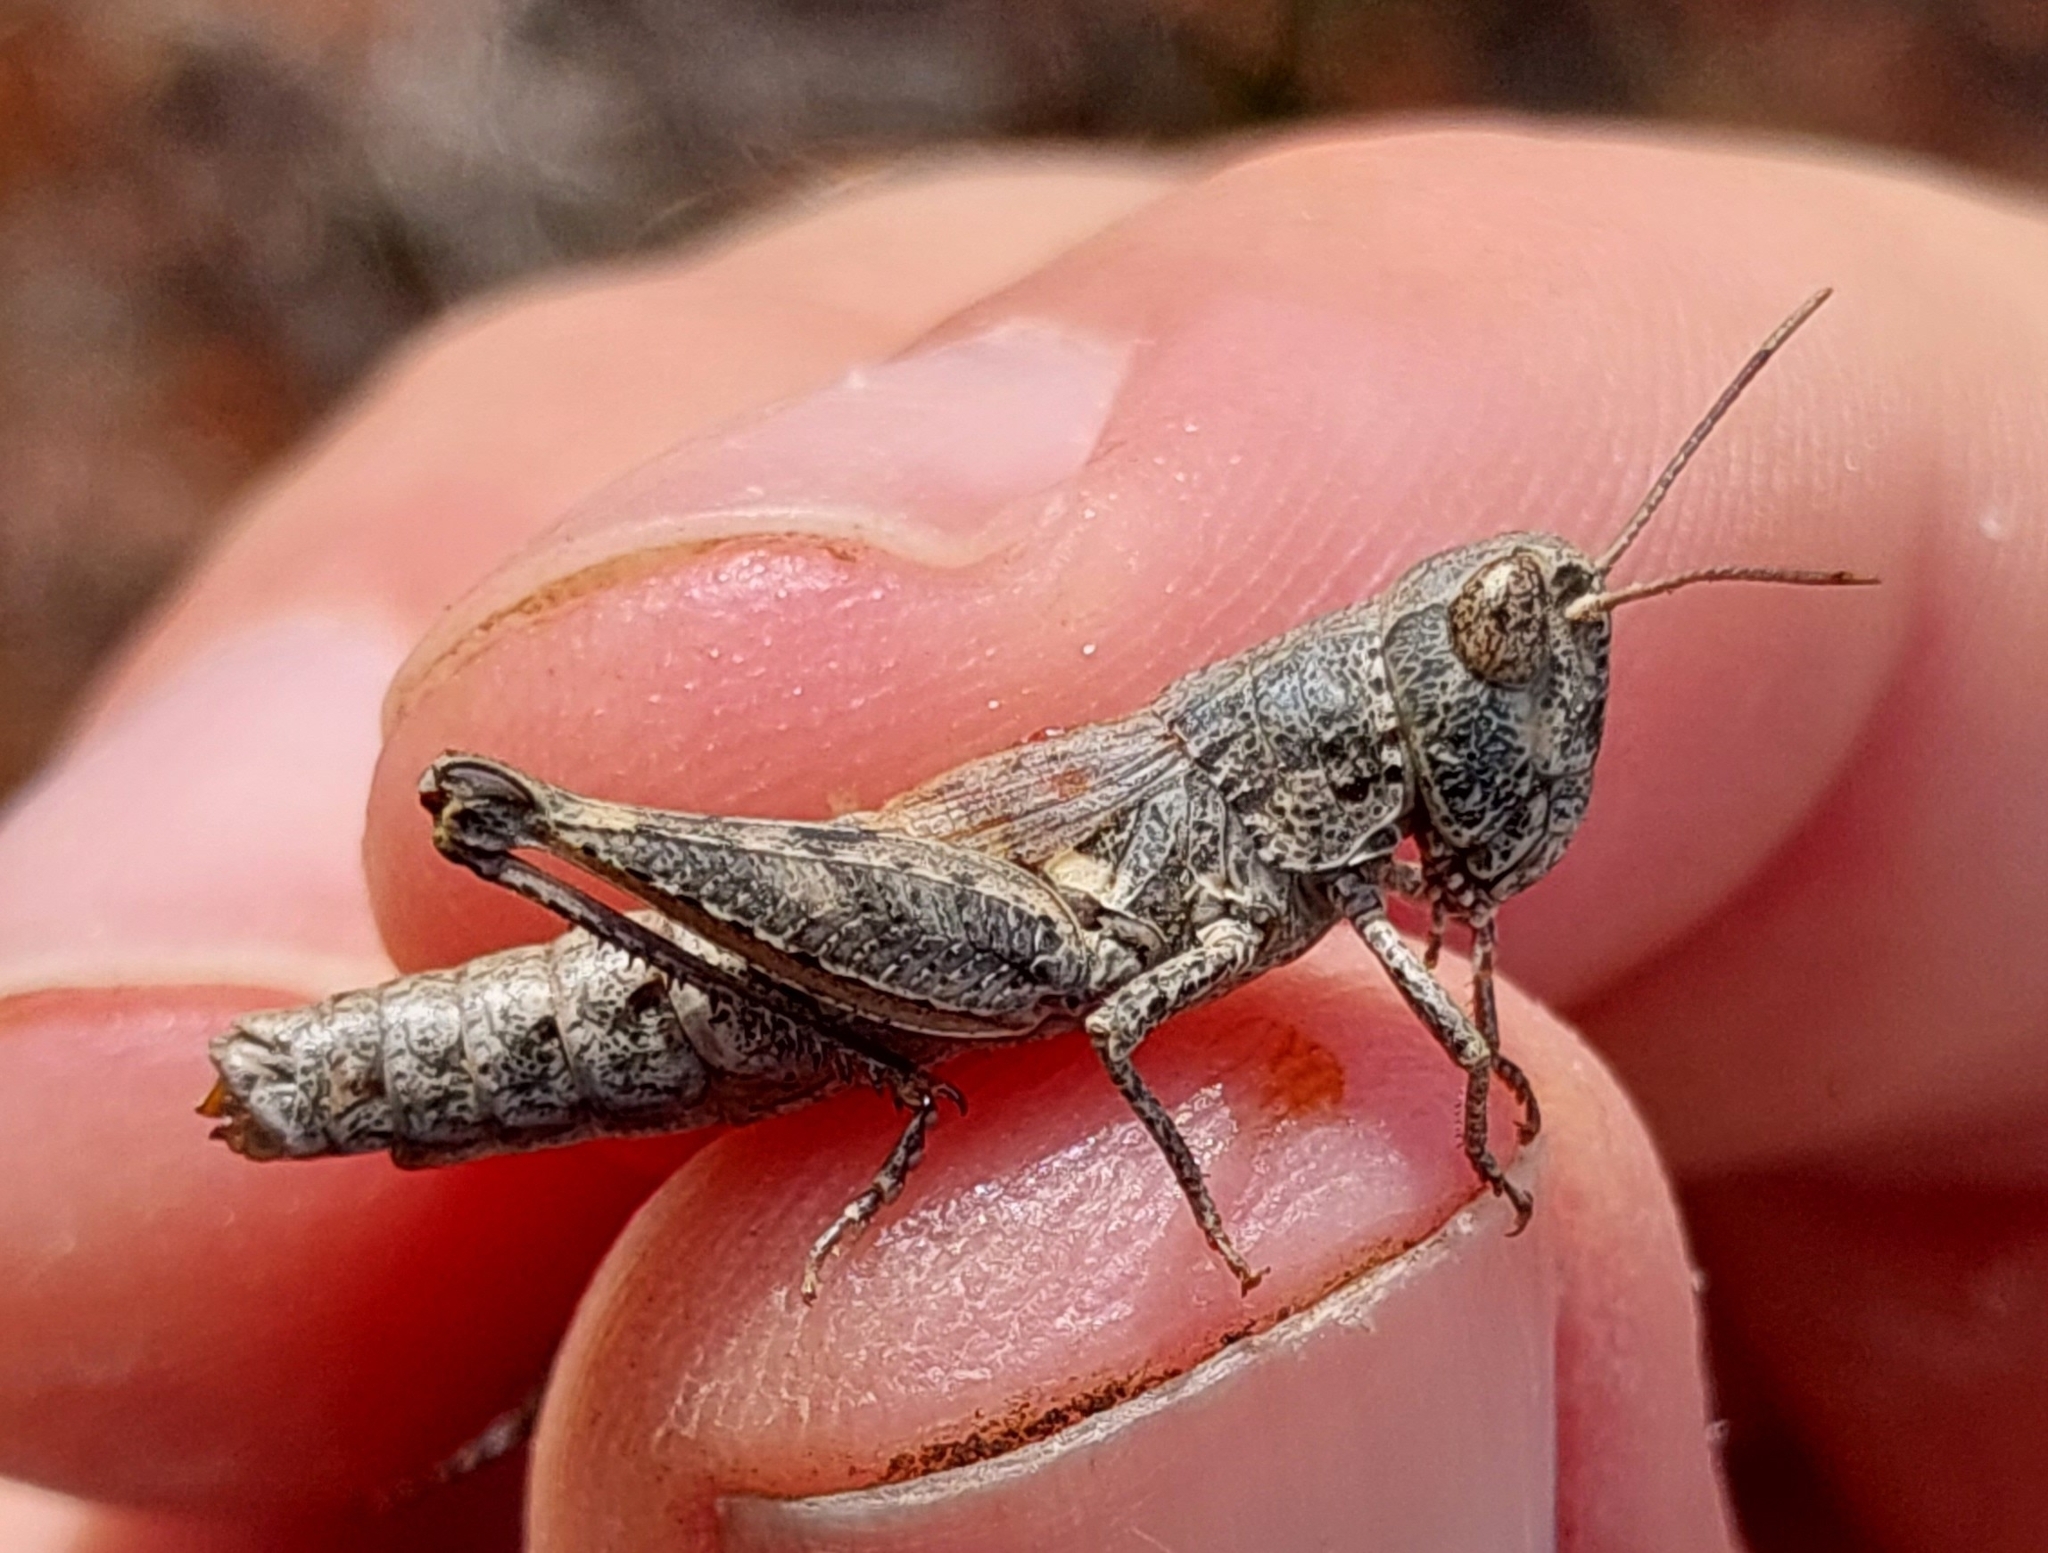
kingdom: Animalia
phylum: Arthropoda
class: Insecta
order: Orthoptera
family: Acrididae
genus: Pezotettix
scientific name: Pezotettix giornae
